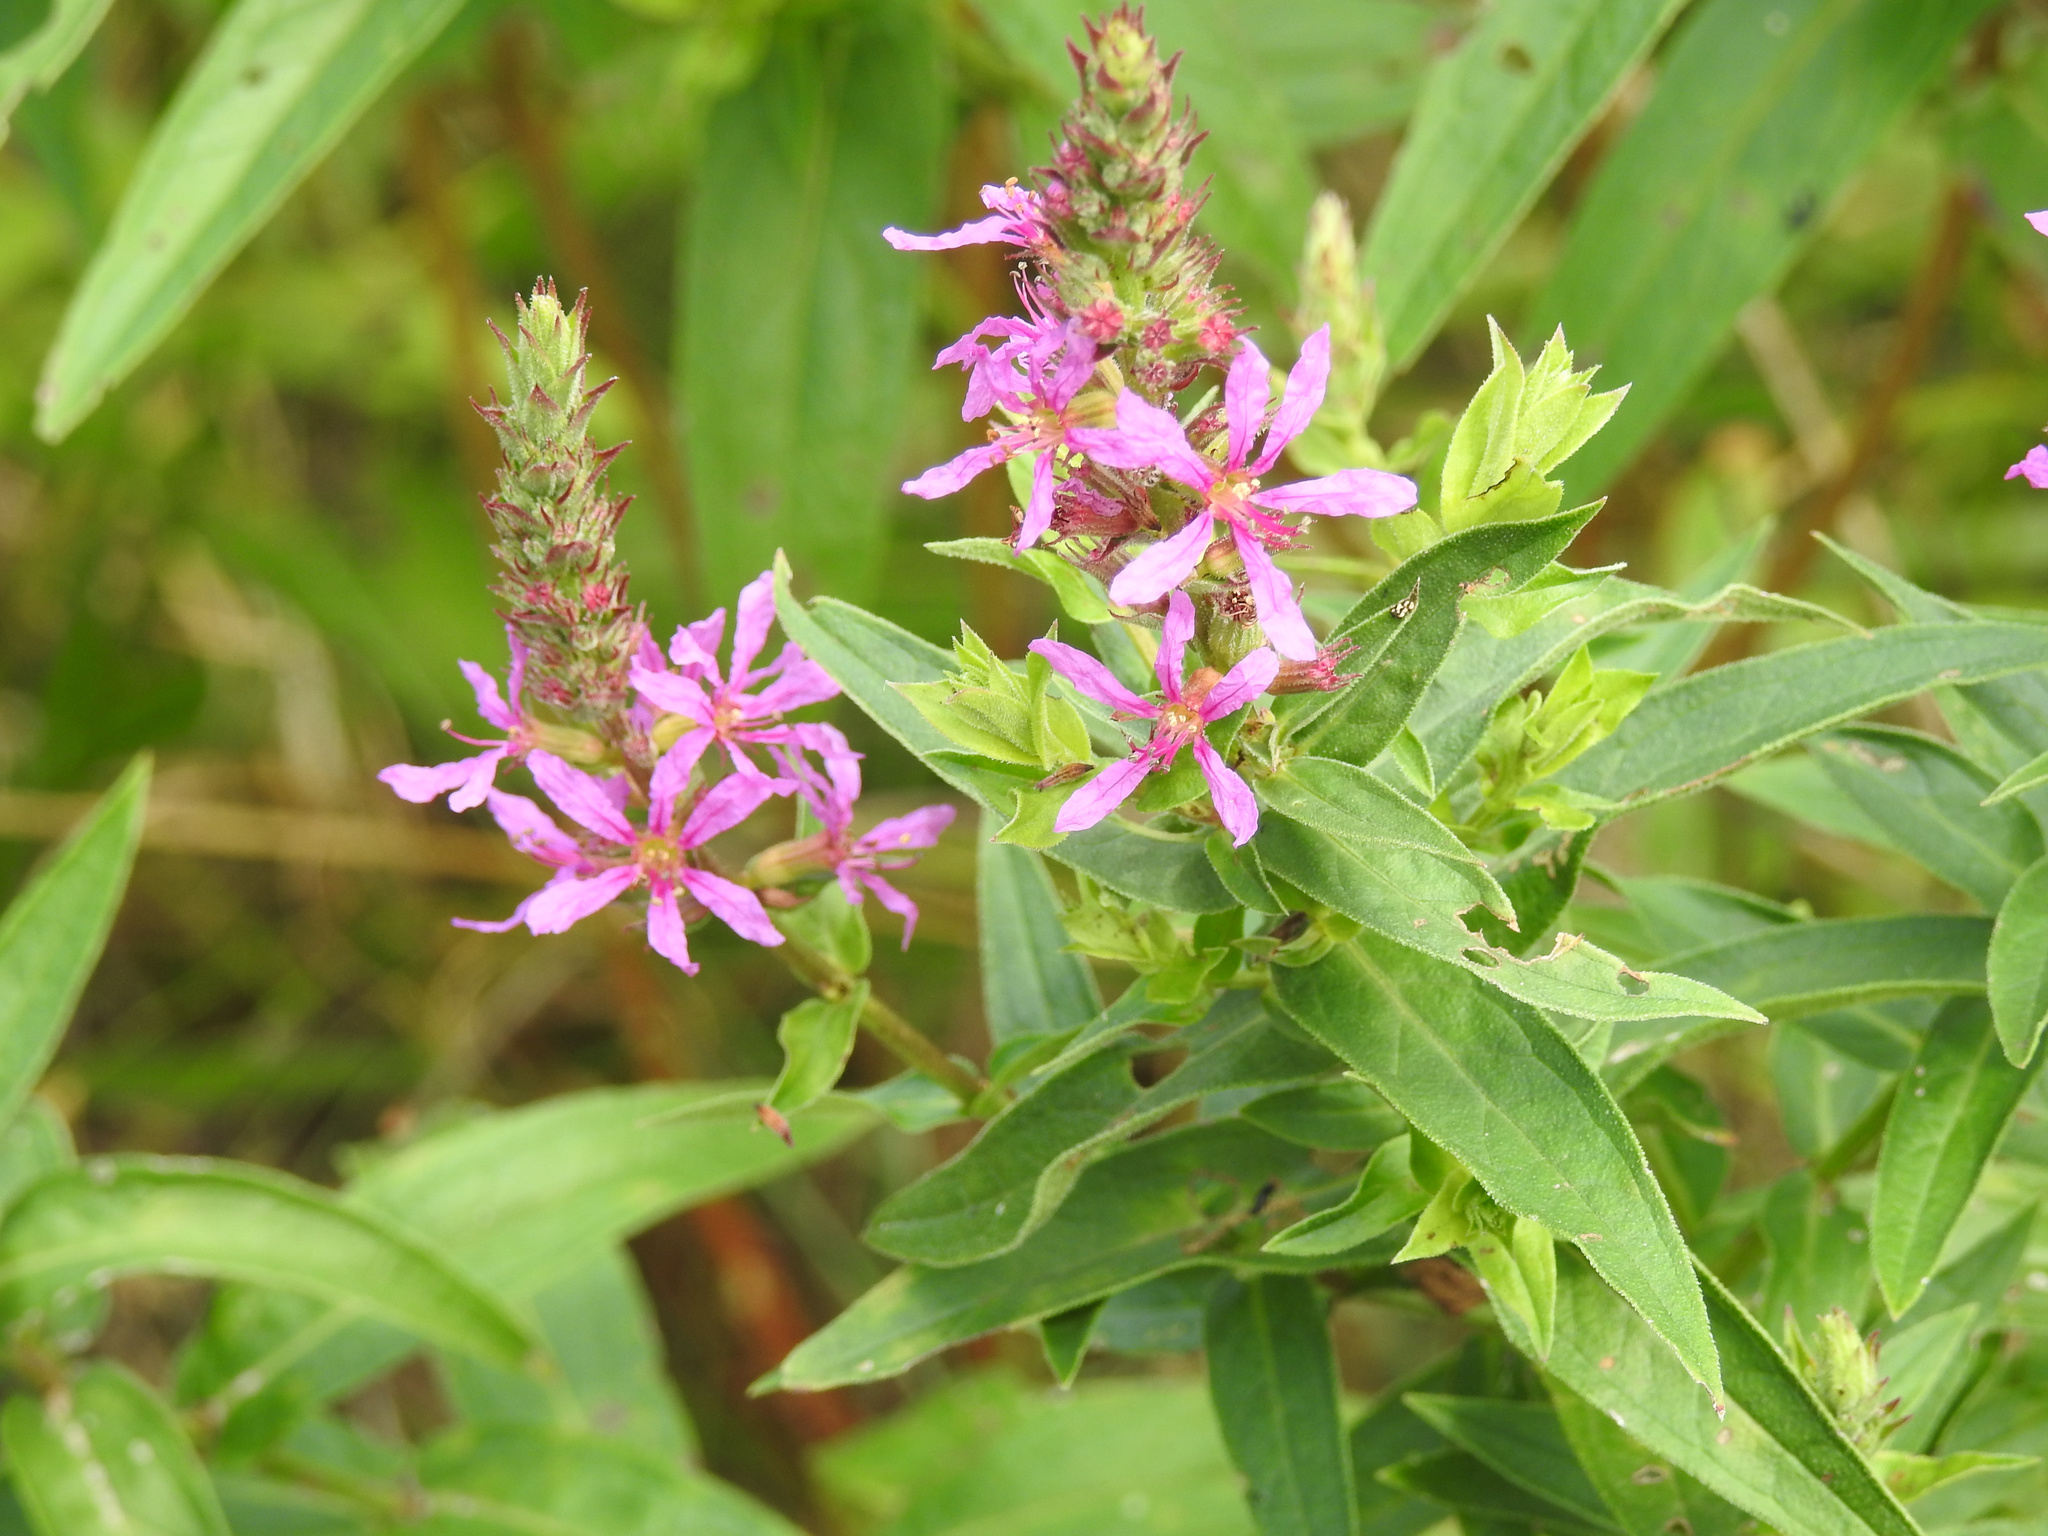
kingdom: Plantae
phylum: Tracheophyta
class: Magnoliopsida
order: Myrtales
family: Lythraceae
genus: Lythrum
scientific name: Lythrum salicaria
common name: Purple loosestrife
